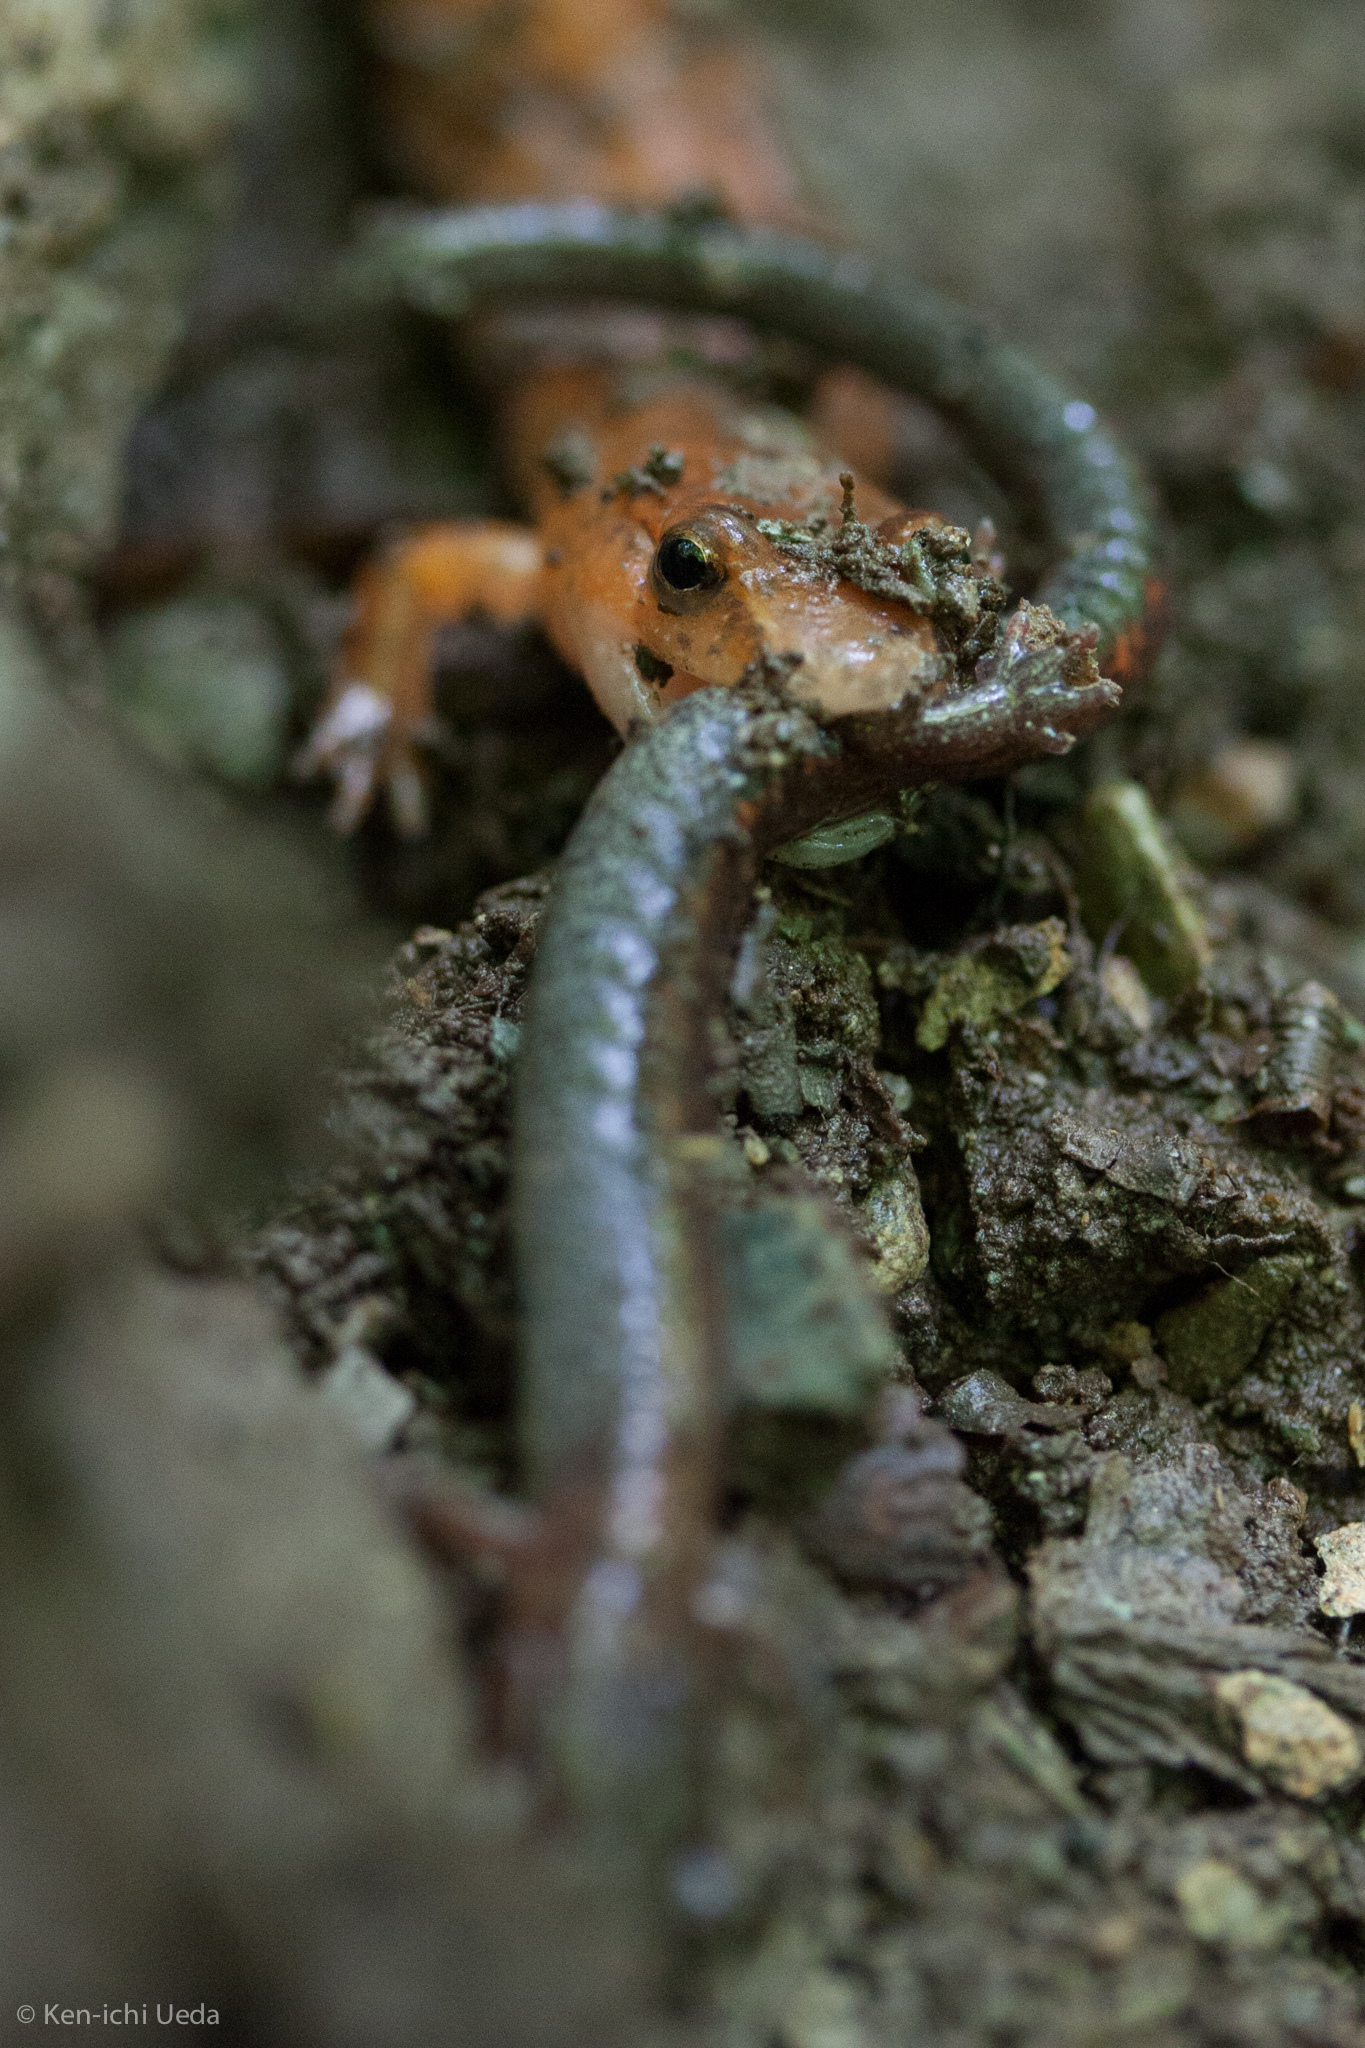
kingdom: Animalia
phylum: Chordata
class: Amphibia
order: Caudata
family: Plethodontidae
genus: Gyrinophilus
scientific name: Gyrinophilus porphyriticus
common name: Spring salamander
